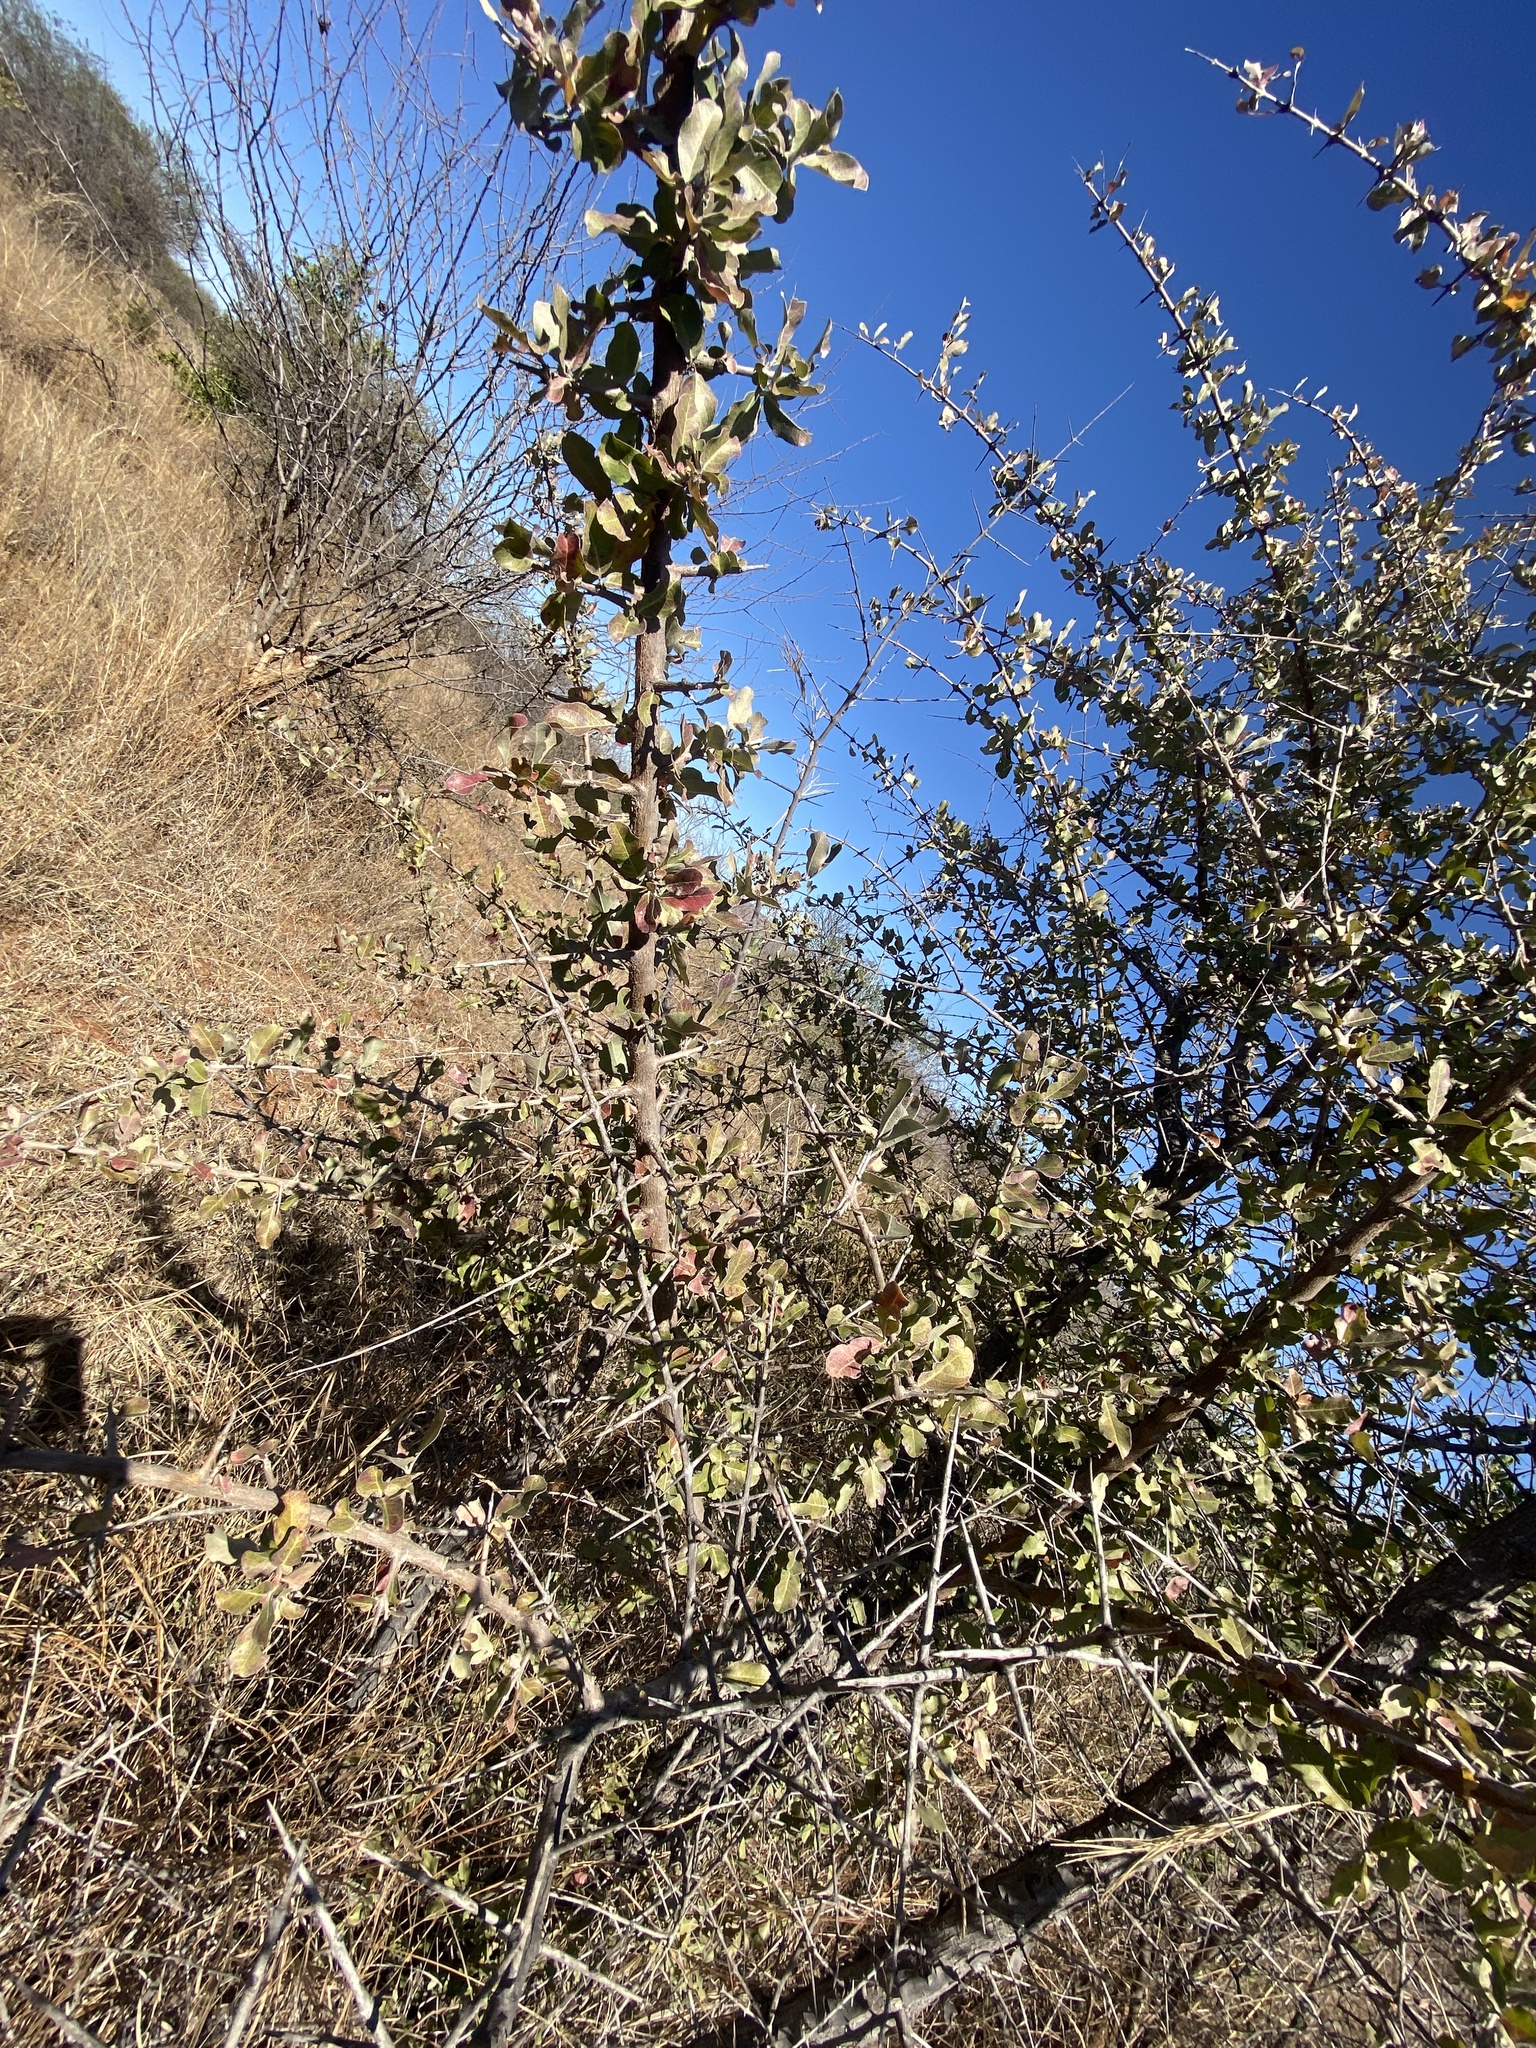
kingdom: Plantae
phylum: Tracheophyta
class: Magnoliopsida
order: Myrtales
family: Combretaceae
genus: Combretum
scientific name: Combretum imberbe
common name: Leadwood
